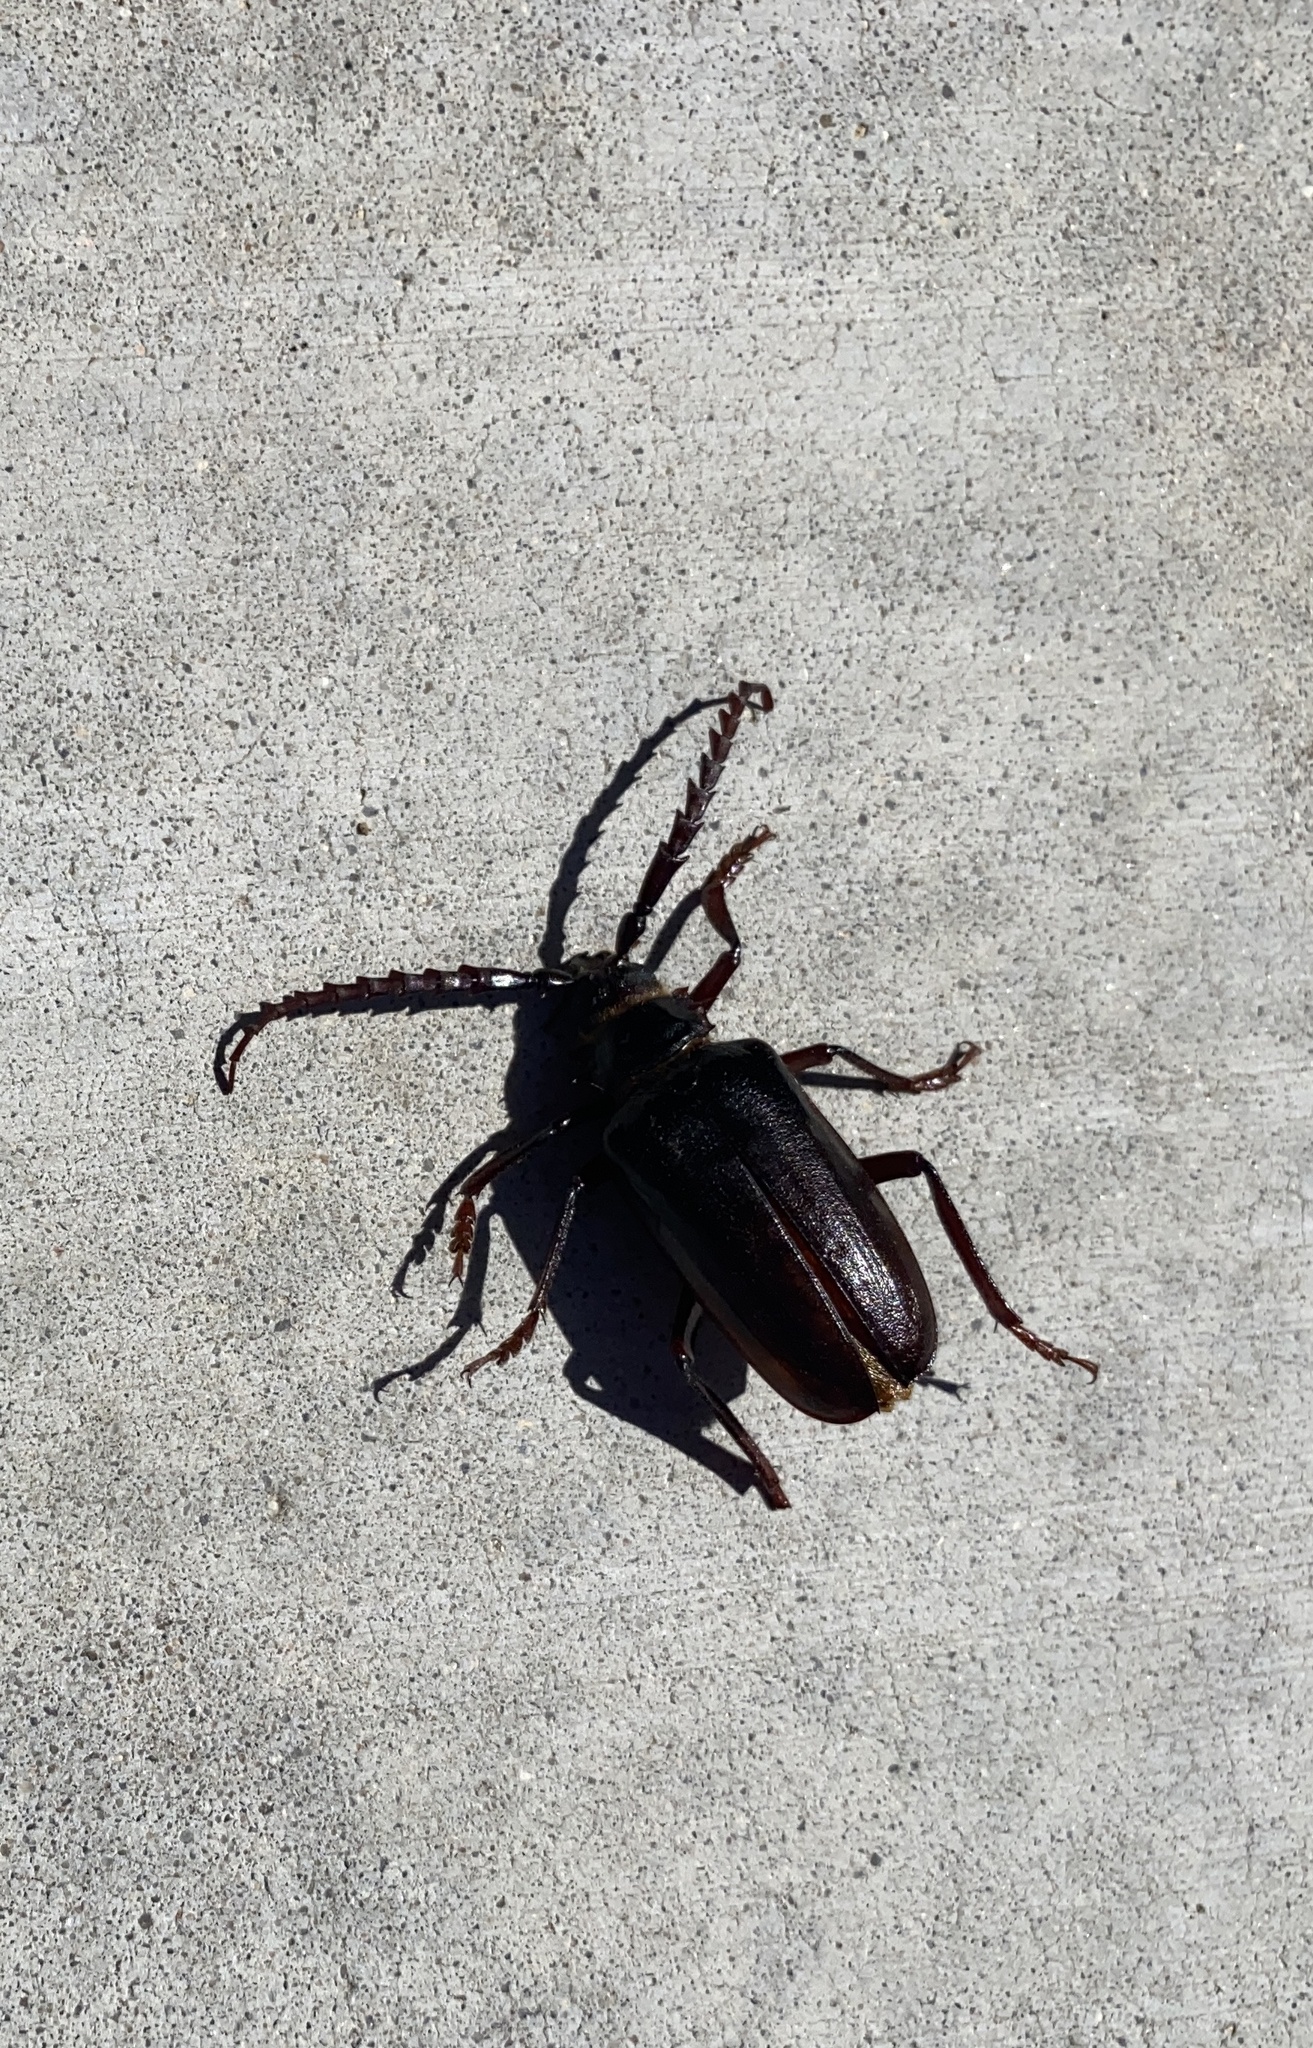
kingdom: Animalia
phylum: Arthropoda
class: Insecta
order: Coleoptera
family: Cerambycidae
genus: Prionus
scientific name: Prionus californicus
